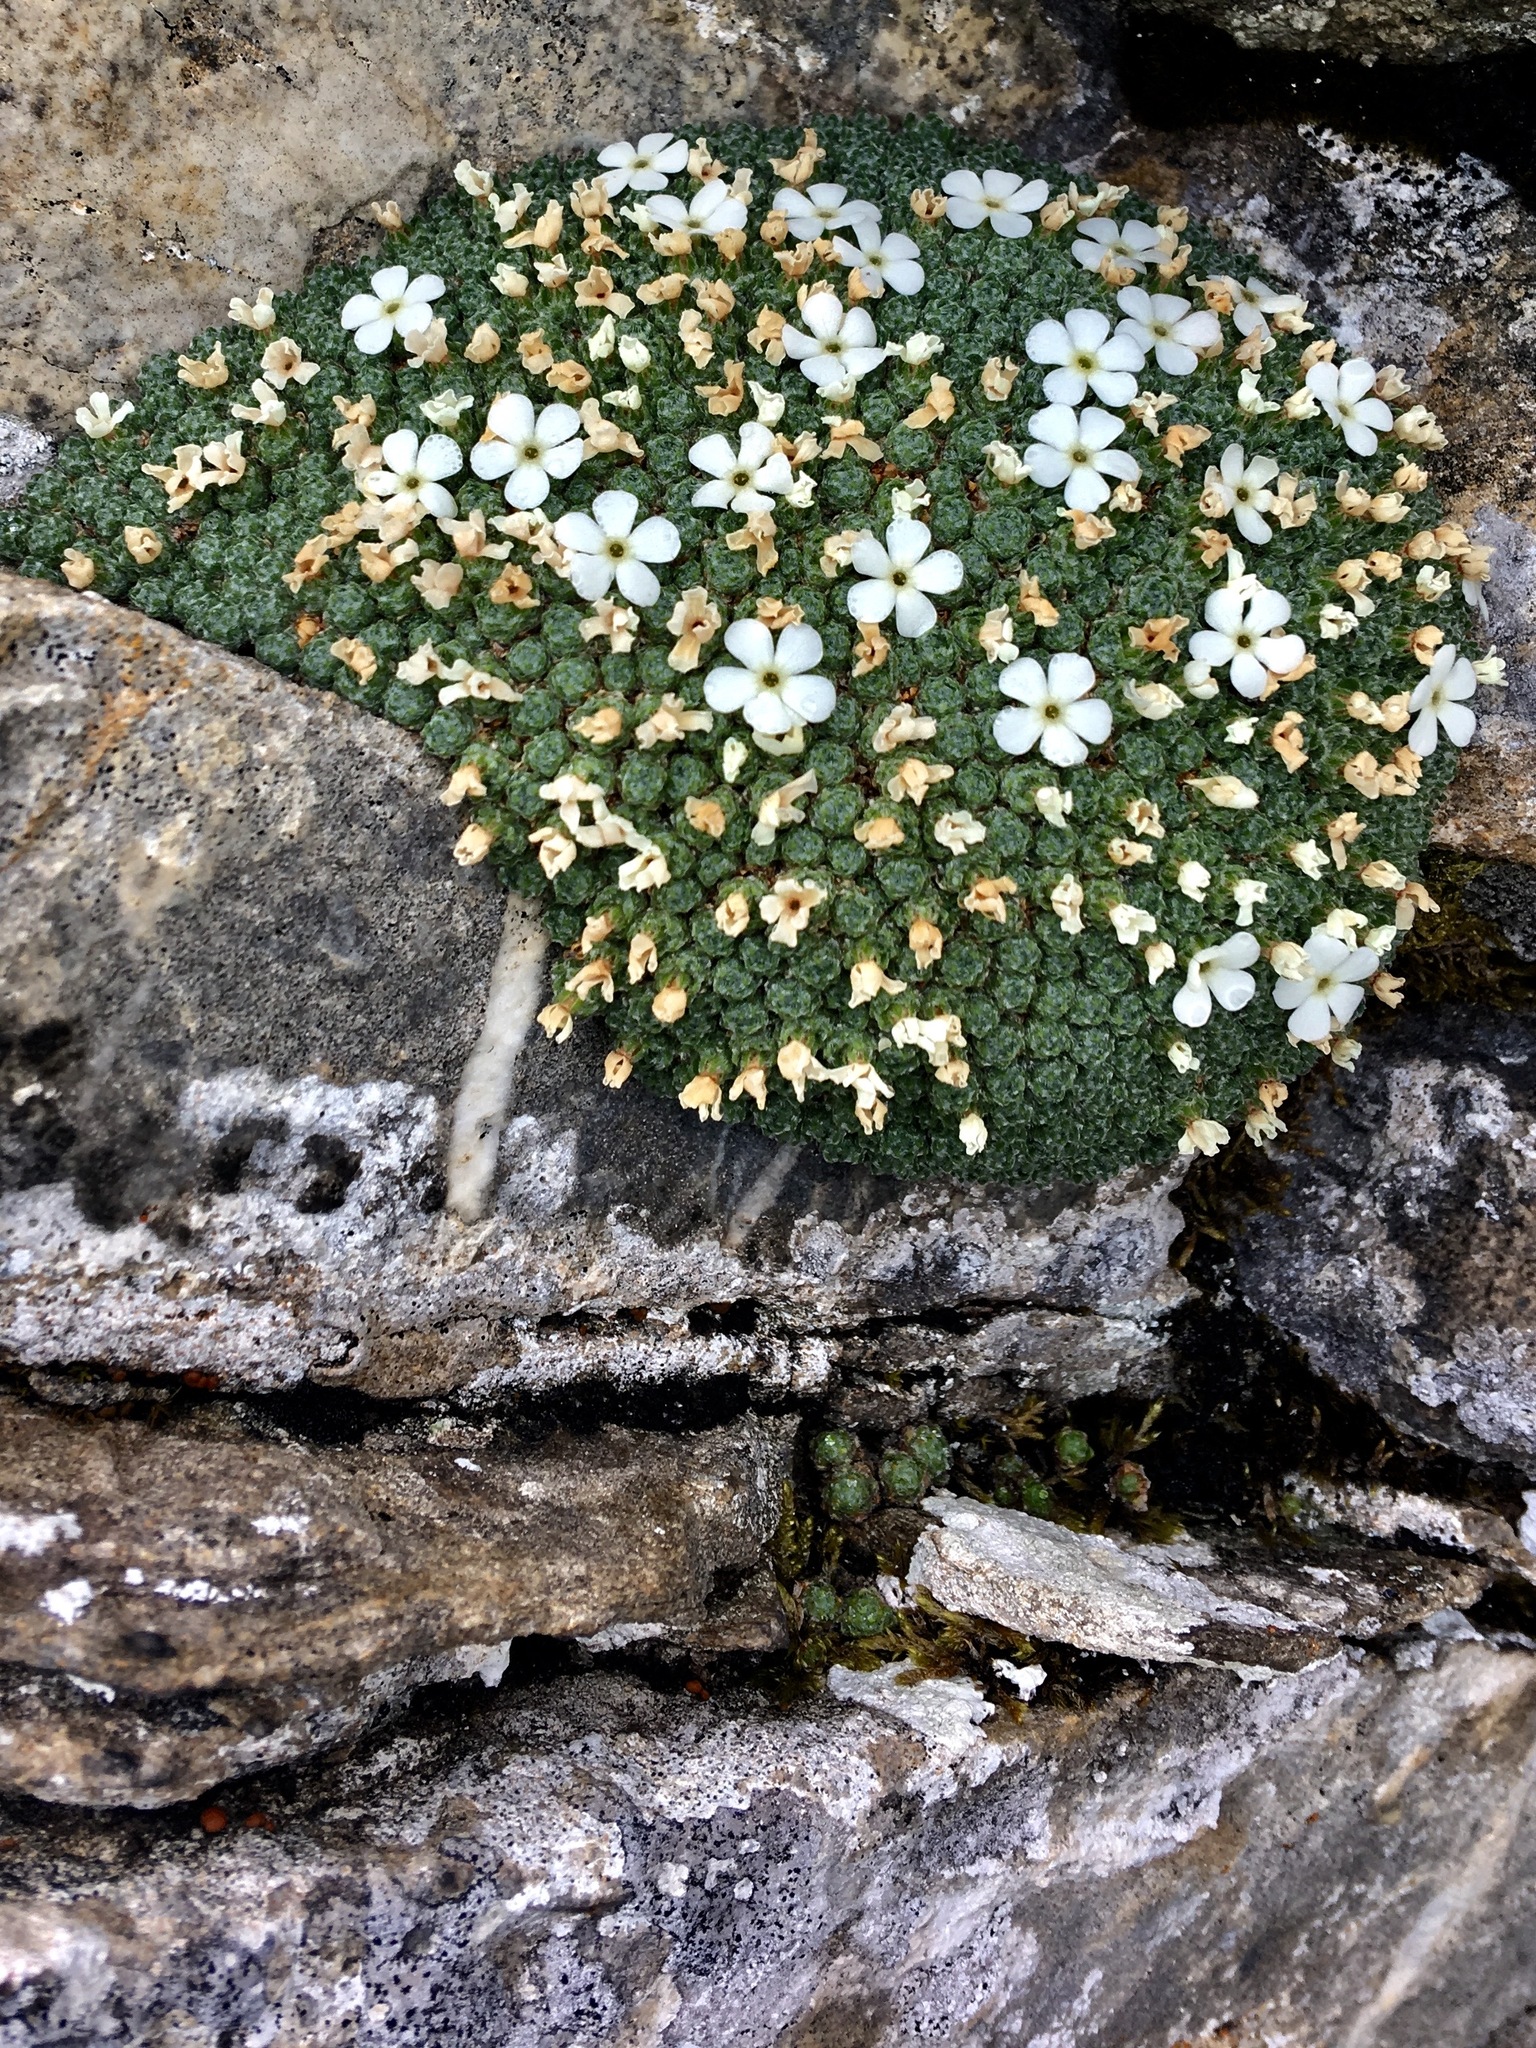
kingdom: Plantae
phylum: Tracheophyta
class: Magnoliopsida
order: Ericales
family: Primulaceae
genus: Androsace
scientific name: Androsace helvetica
